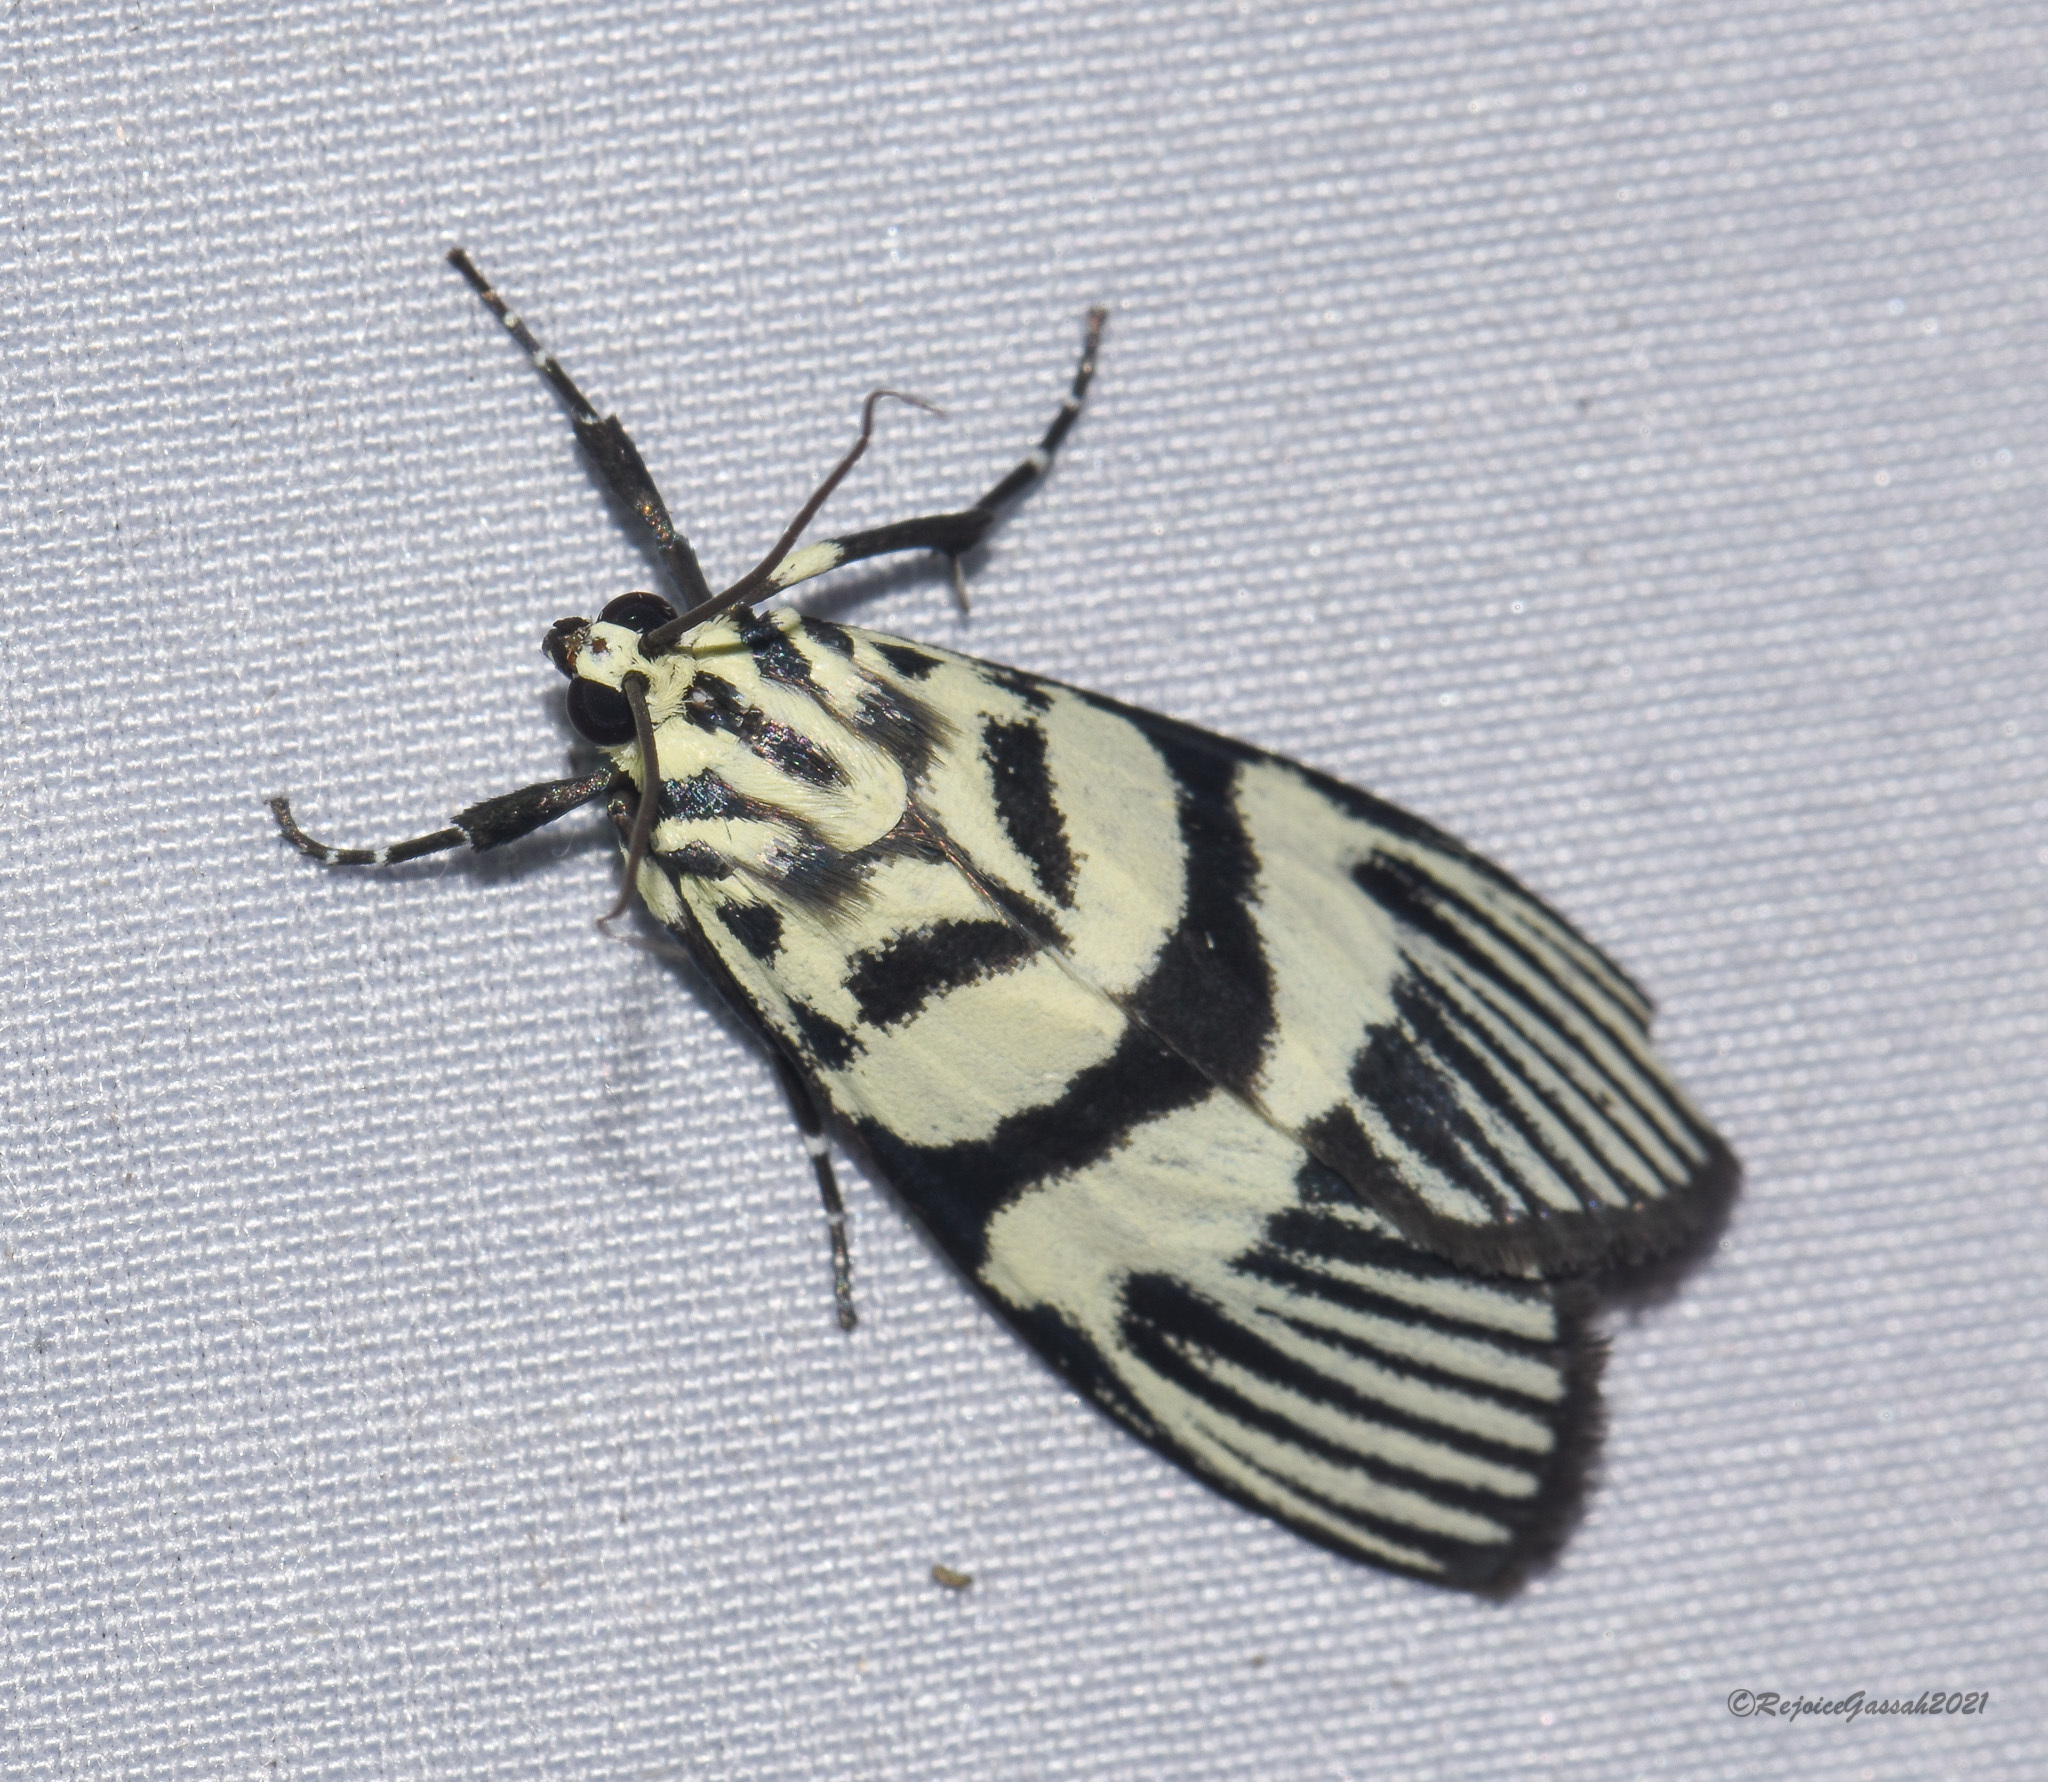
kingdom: Animalia
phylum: Arthropoda
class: Insecta
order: Lepidoptera
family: Crambidae
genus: Heortia
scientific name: Heortia vitessoides
